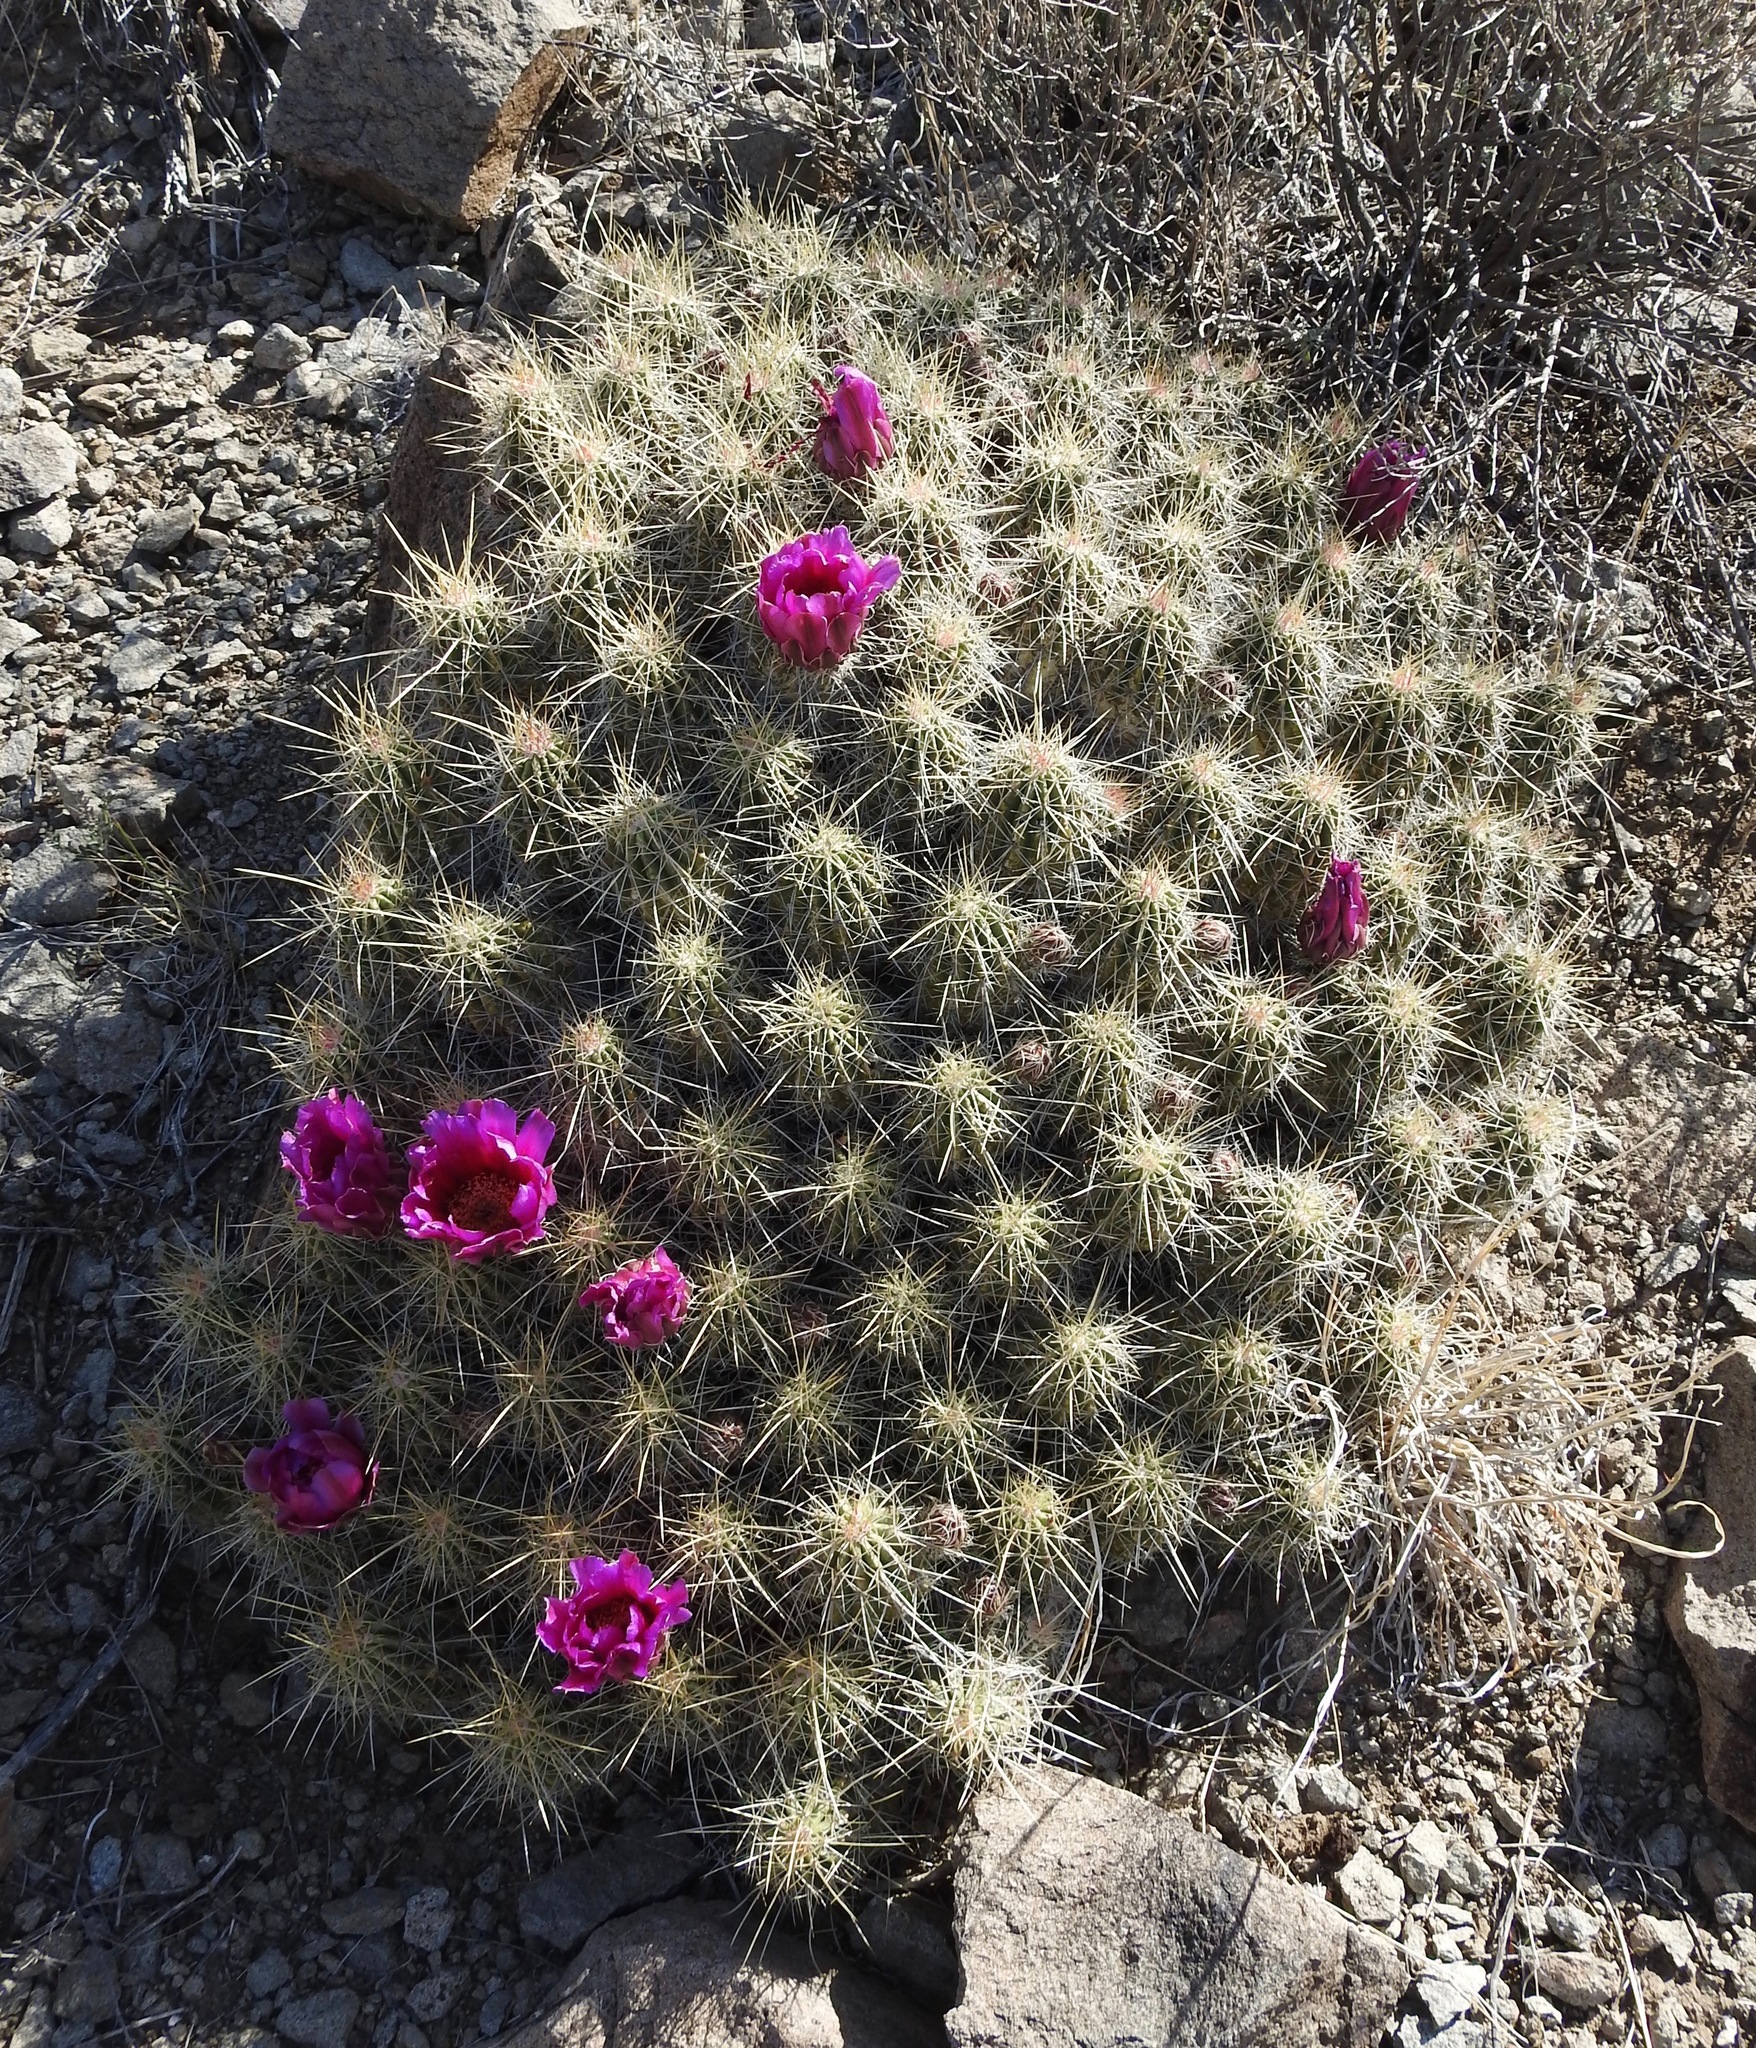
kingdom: Plantae
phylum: Tracheophyta
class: Magnoliopsida
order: Caryophyllales
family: Cactaceae
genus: Echinocereus
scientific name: Echinocereus stramineus
